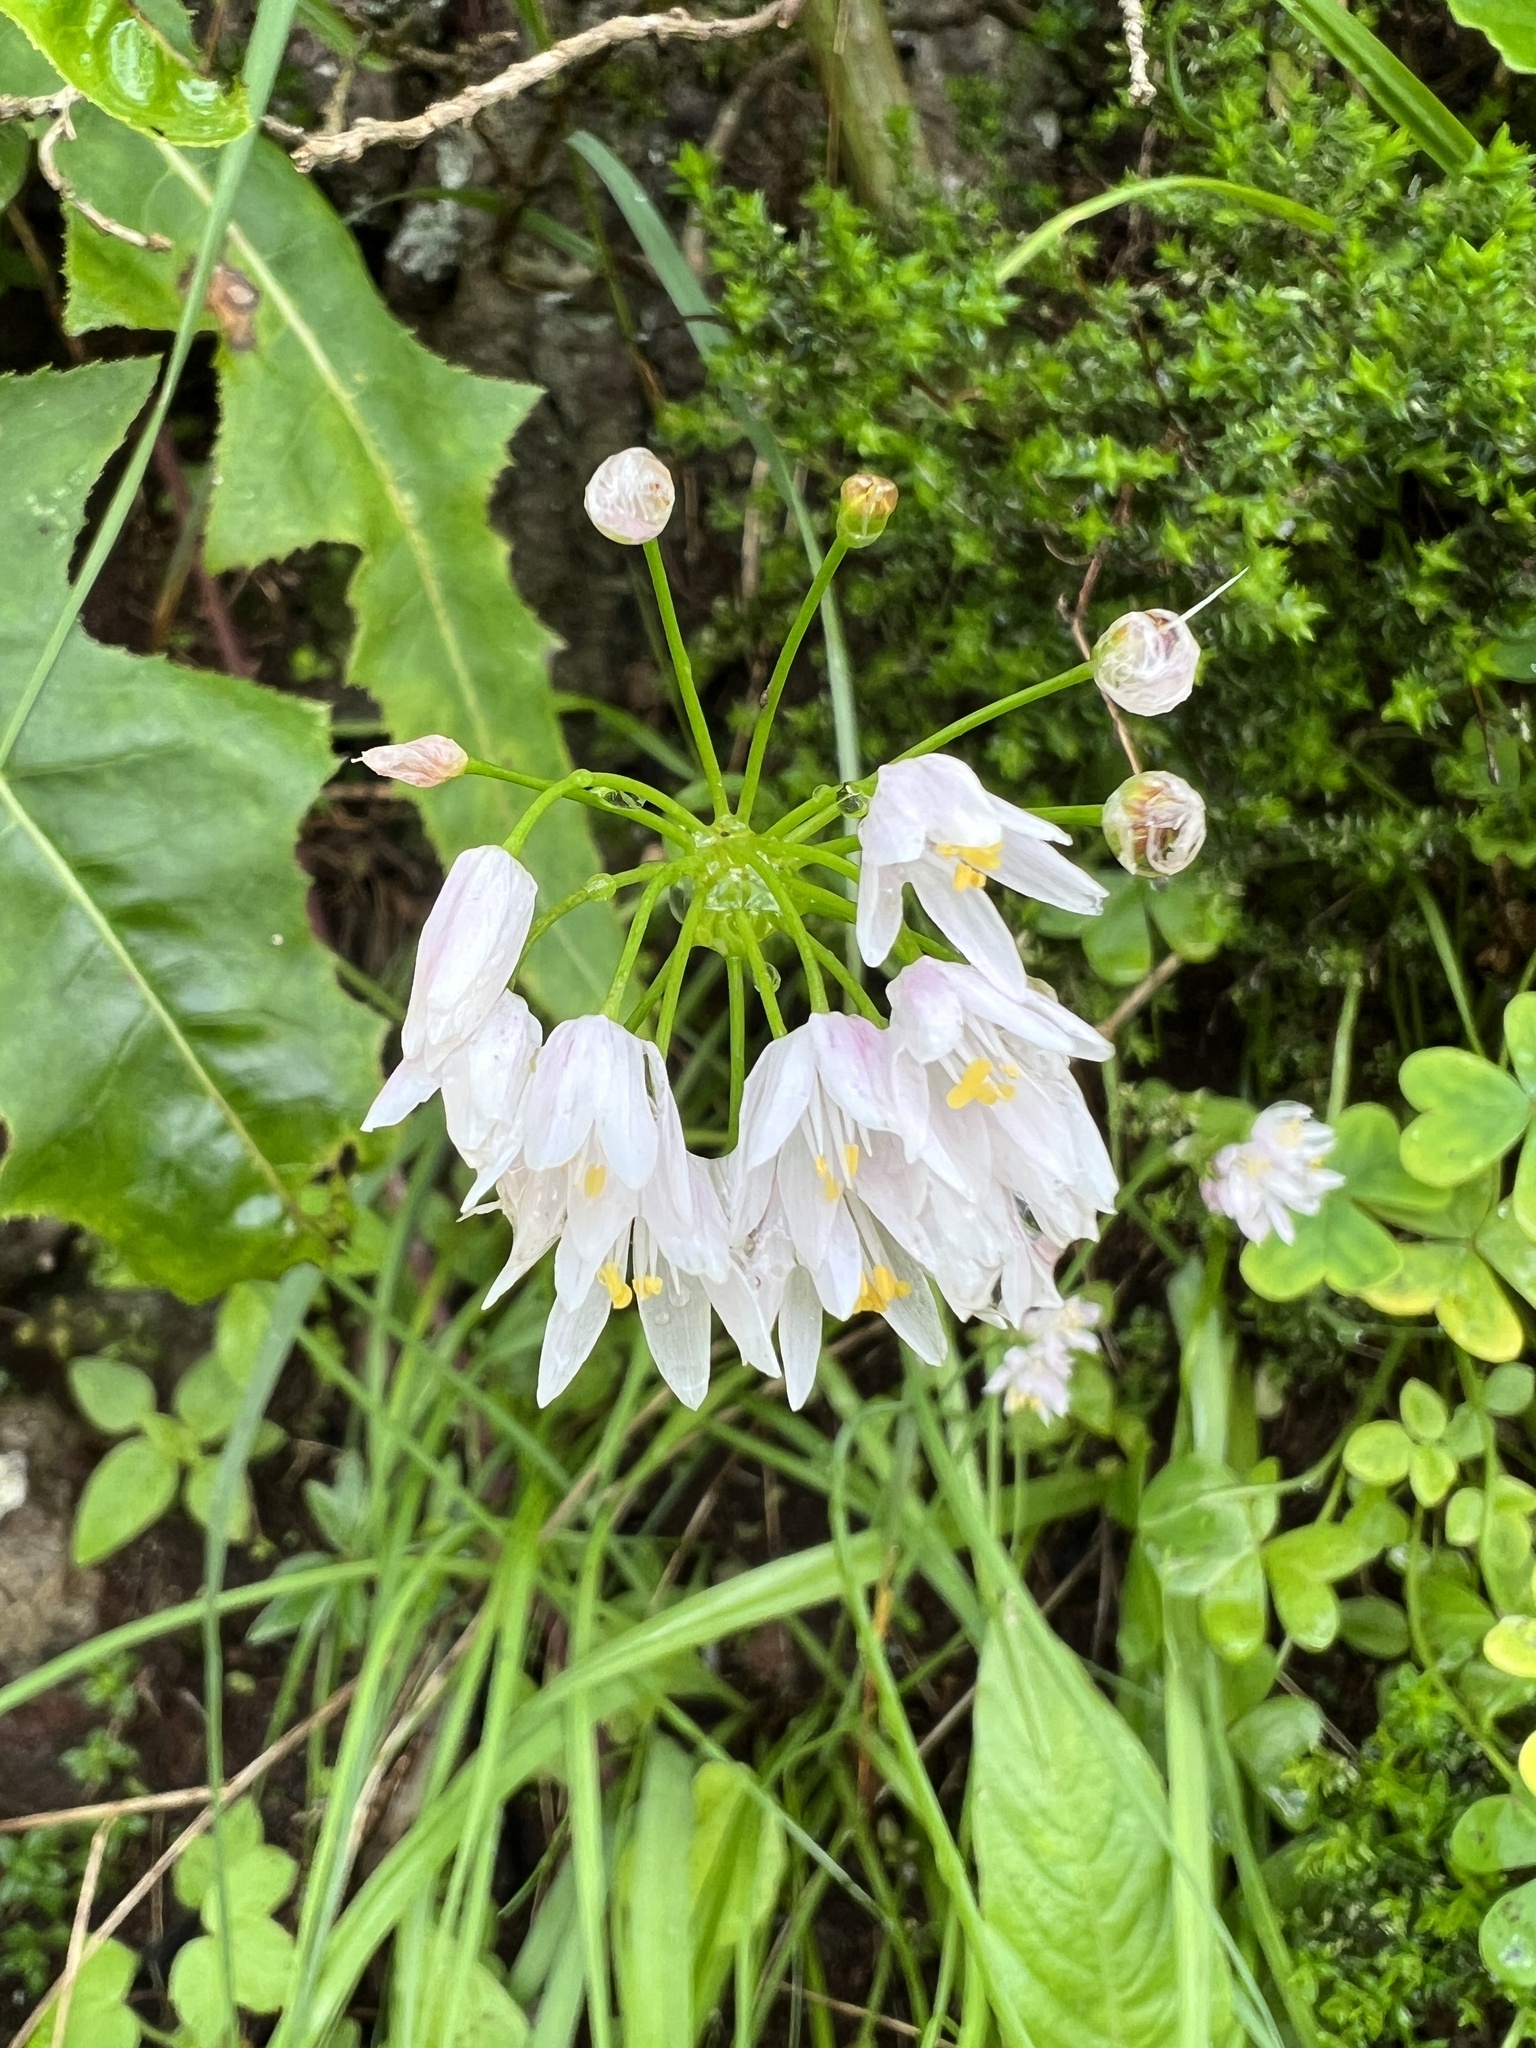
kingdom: Plantae
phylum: Tracheophyta
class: Liliopsida
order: Asparagales
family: Amaryllidaceae
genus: Allium
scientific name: Allium canariense
